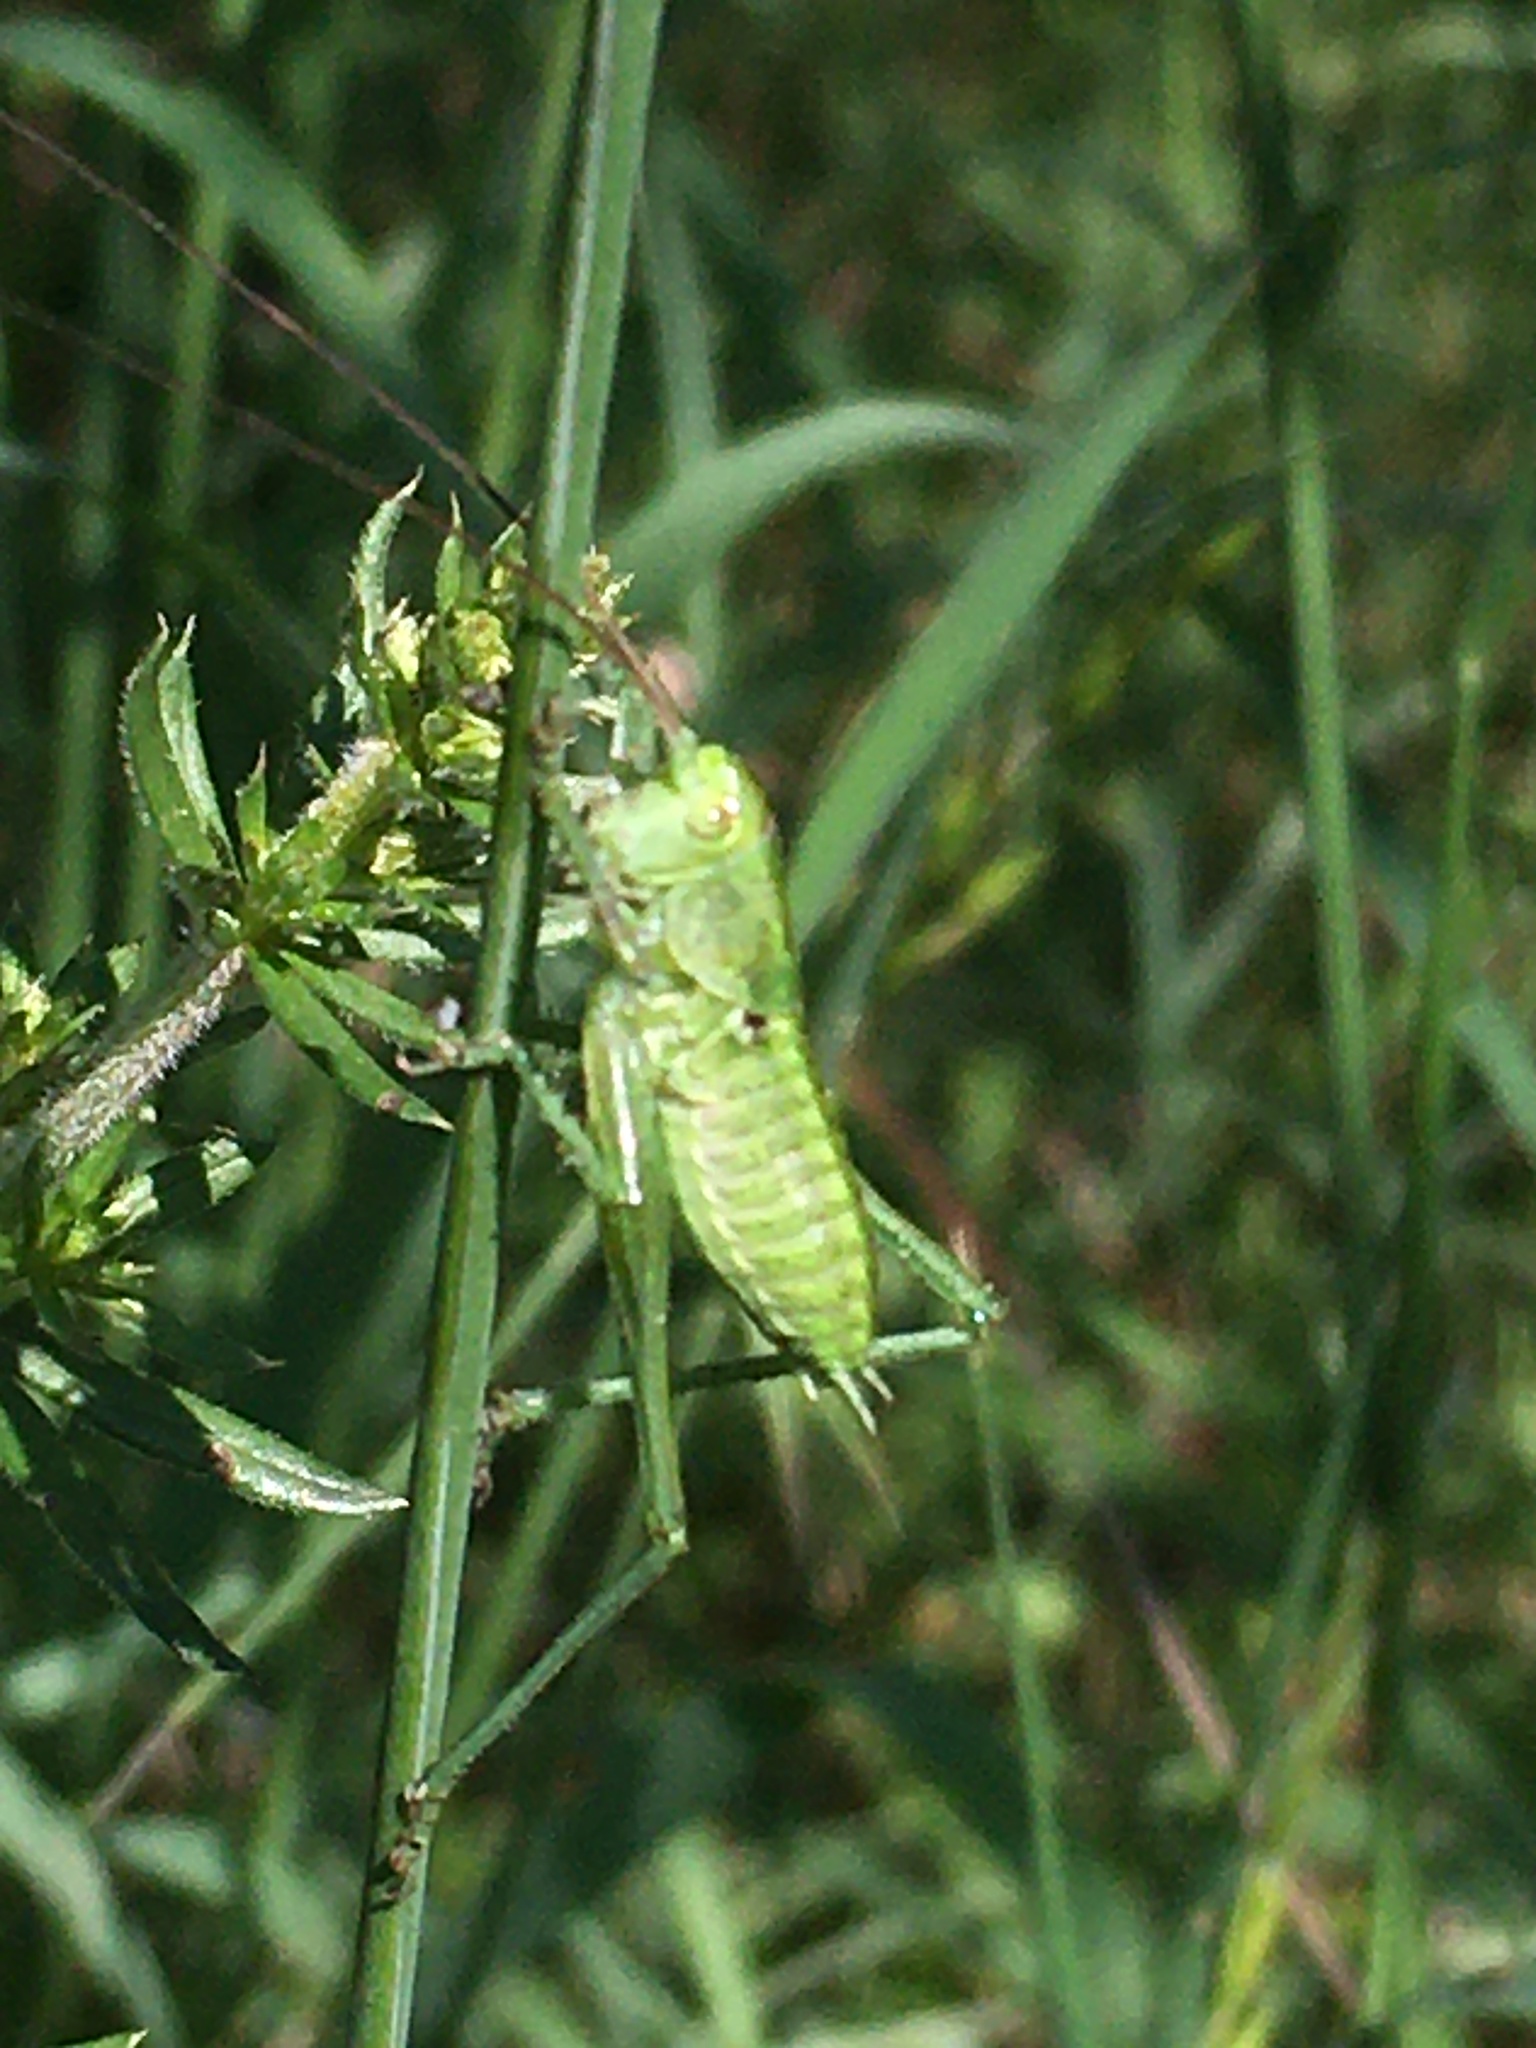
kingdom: Animalia
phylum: Arthropoda
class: Insecta
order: Orthoptera
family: Tettigoniidae
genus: Tettigonia
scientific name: Tettigonia viridissima
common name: Great green bush-cricket
